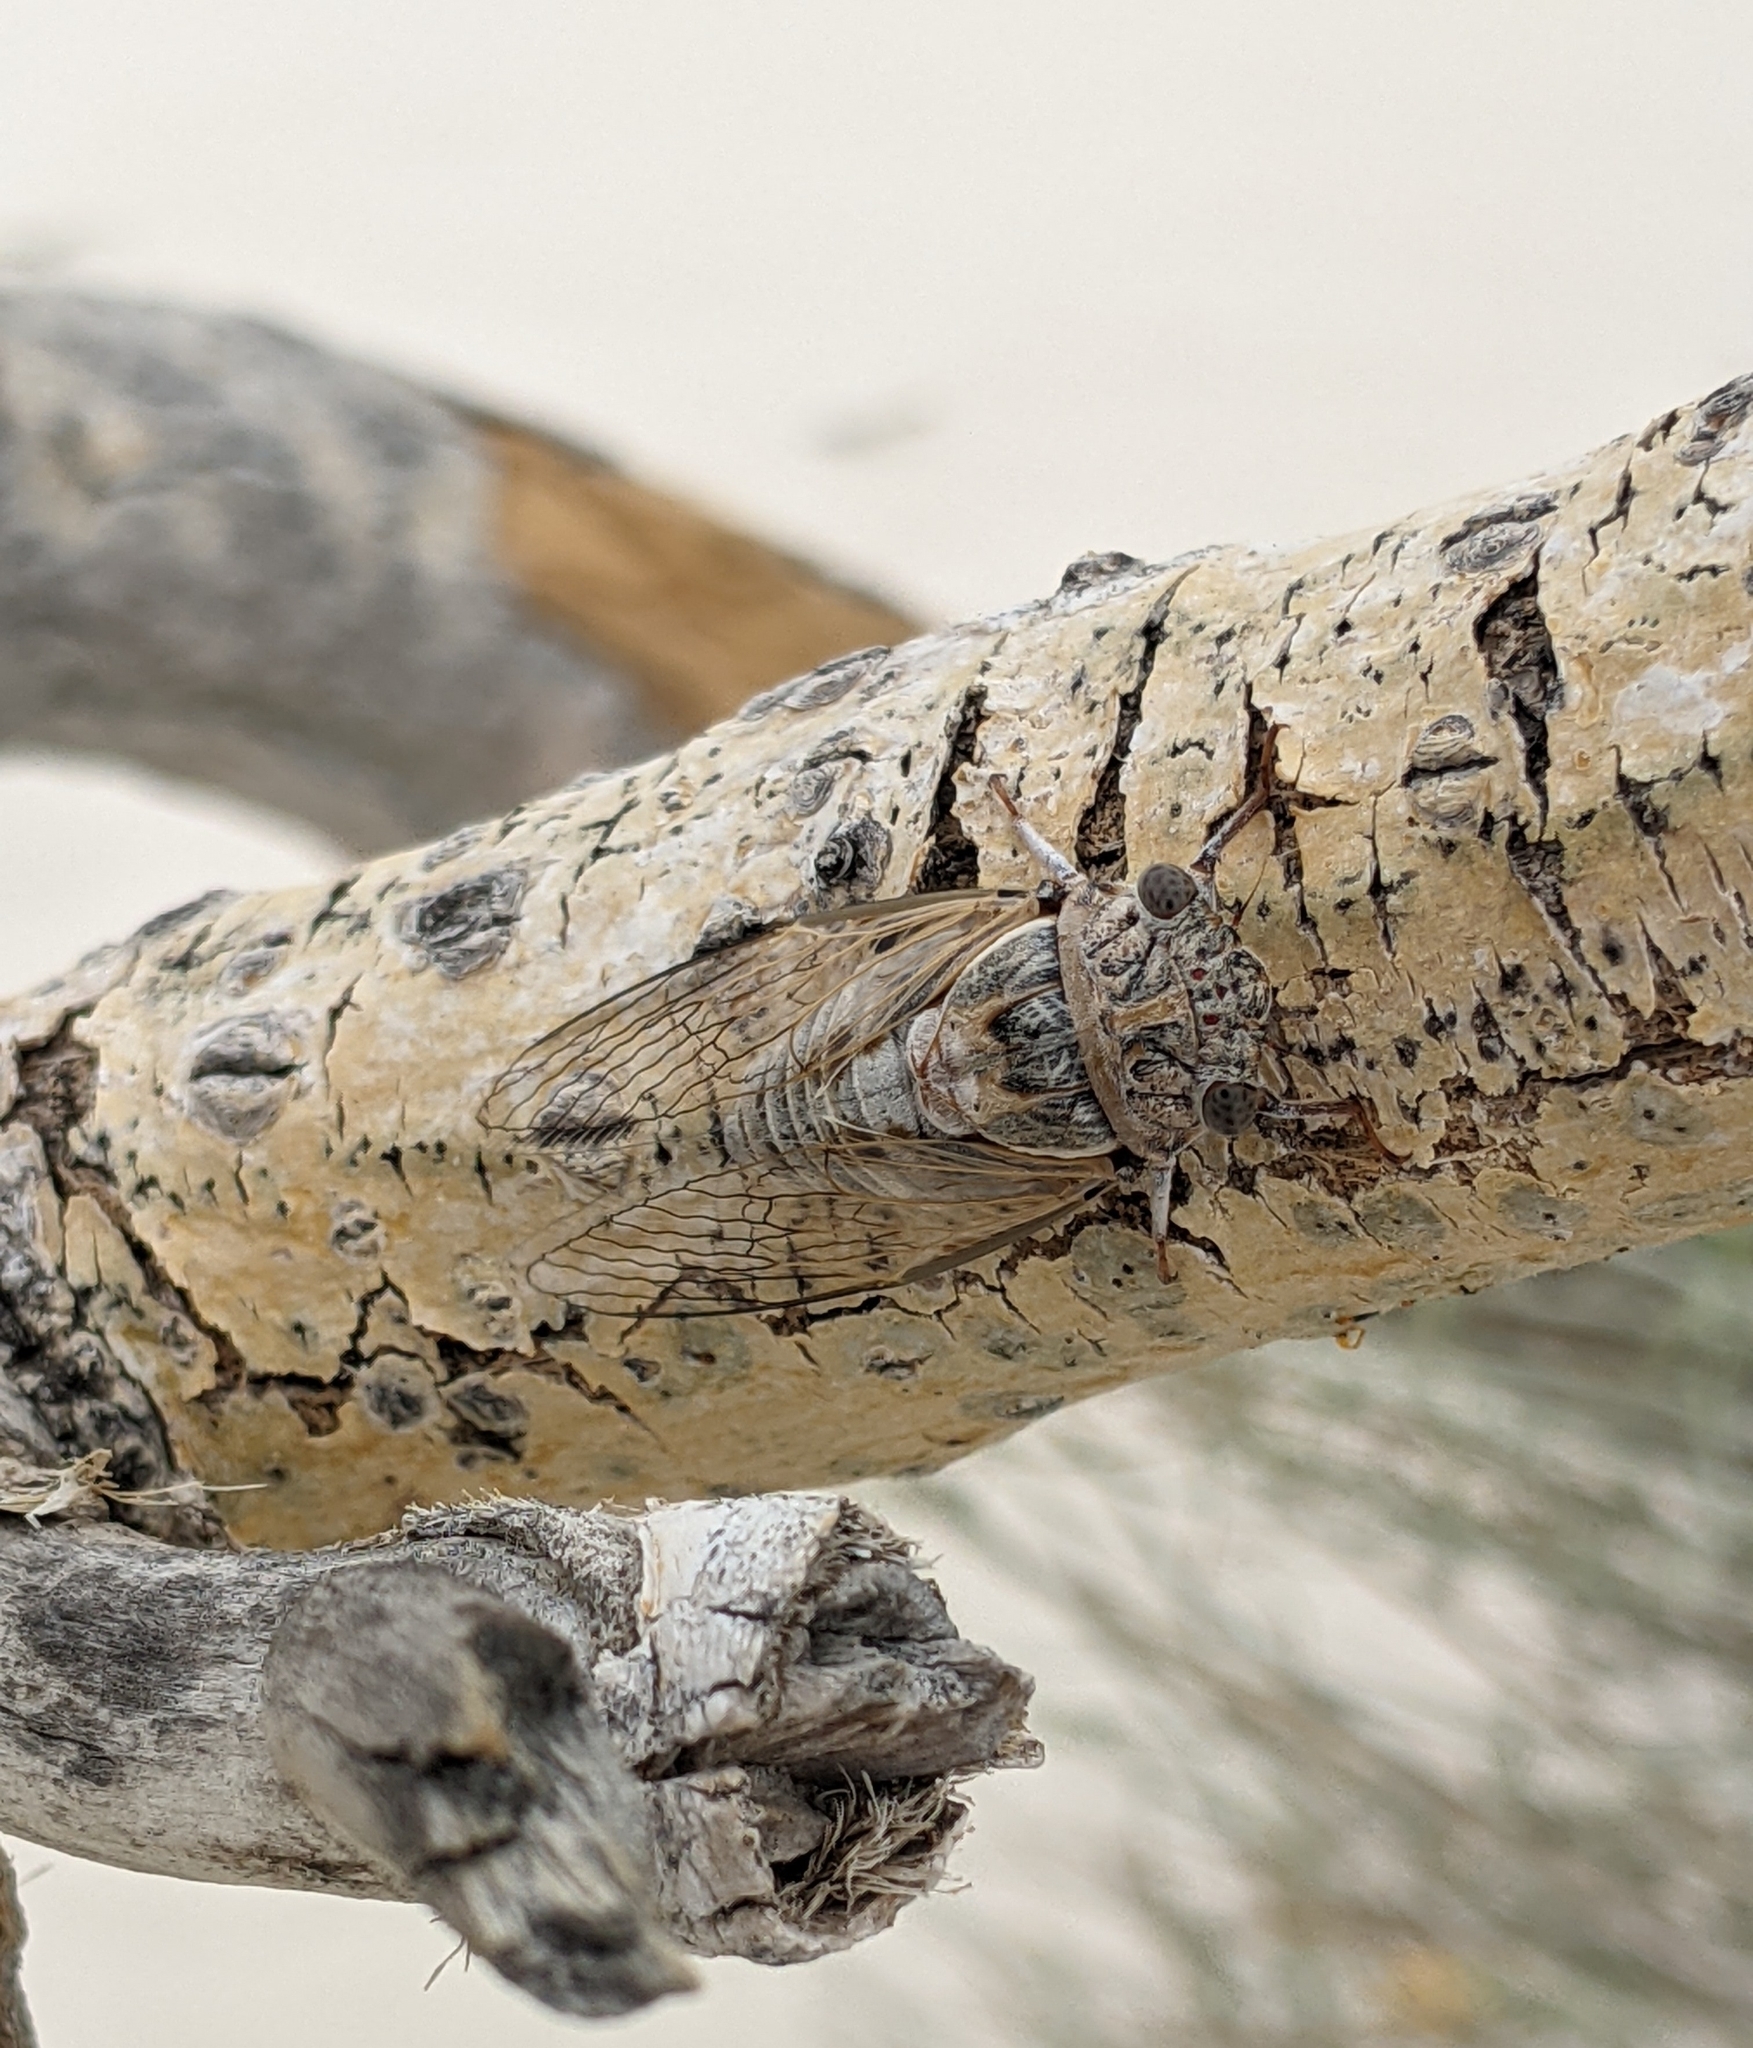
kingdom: Animalia
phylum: Arthropoda
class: Insecta
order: Hemiptera
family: Cicadidae
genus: Diceroprocta
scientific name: Diceroprocta eugraphica
